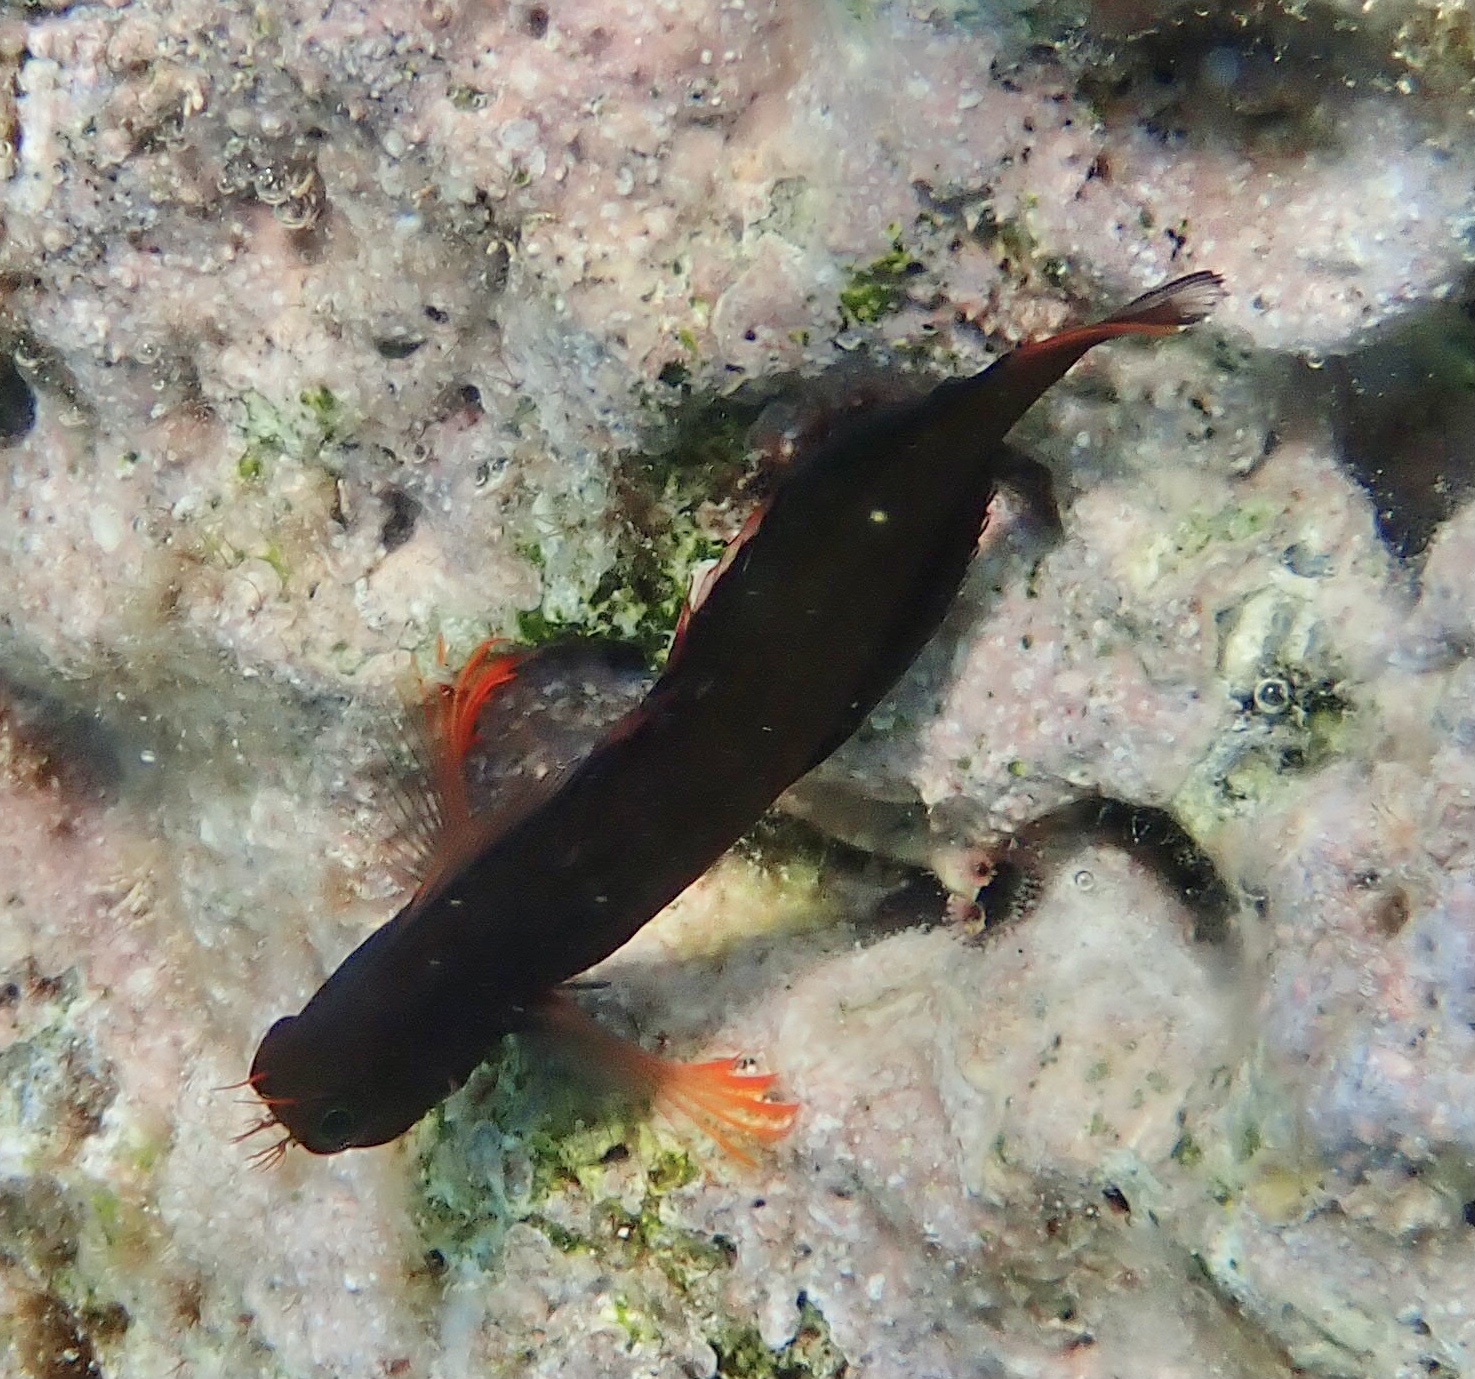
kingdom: Animalia
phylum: Chordata
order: Perciformes
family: Blenniidae
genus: Ophioblennius
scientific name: Ophioblennius macclurei
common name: Redlip blenny
